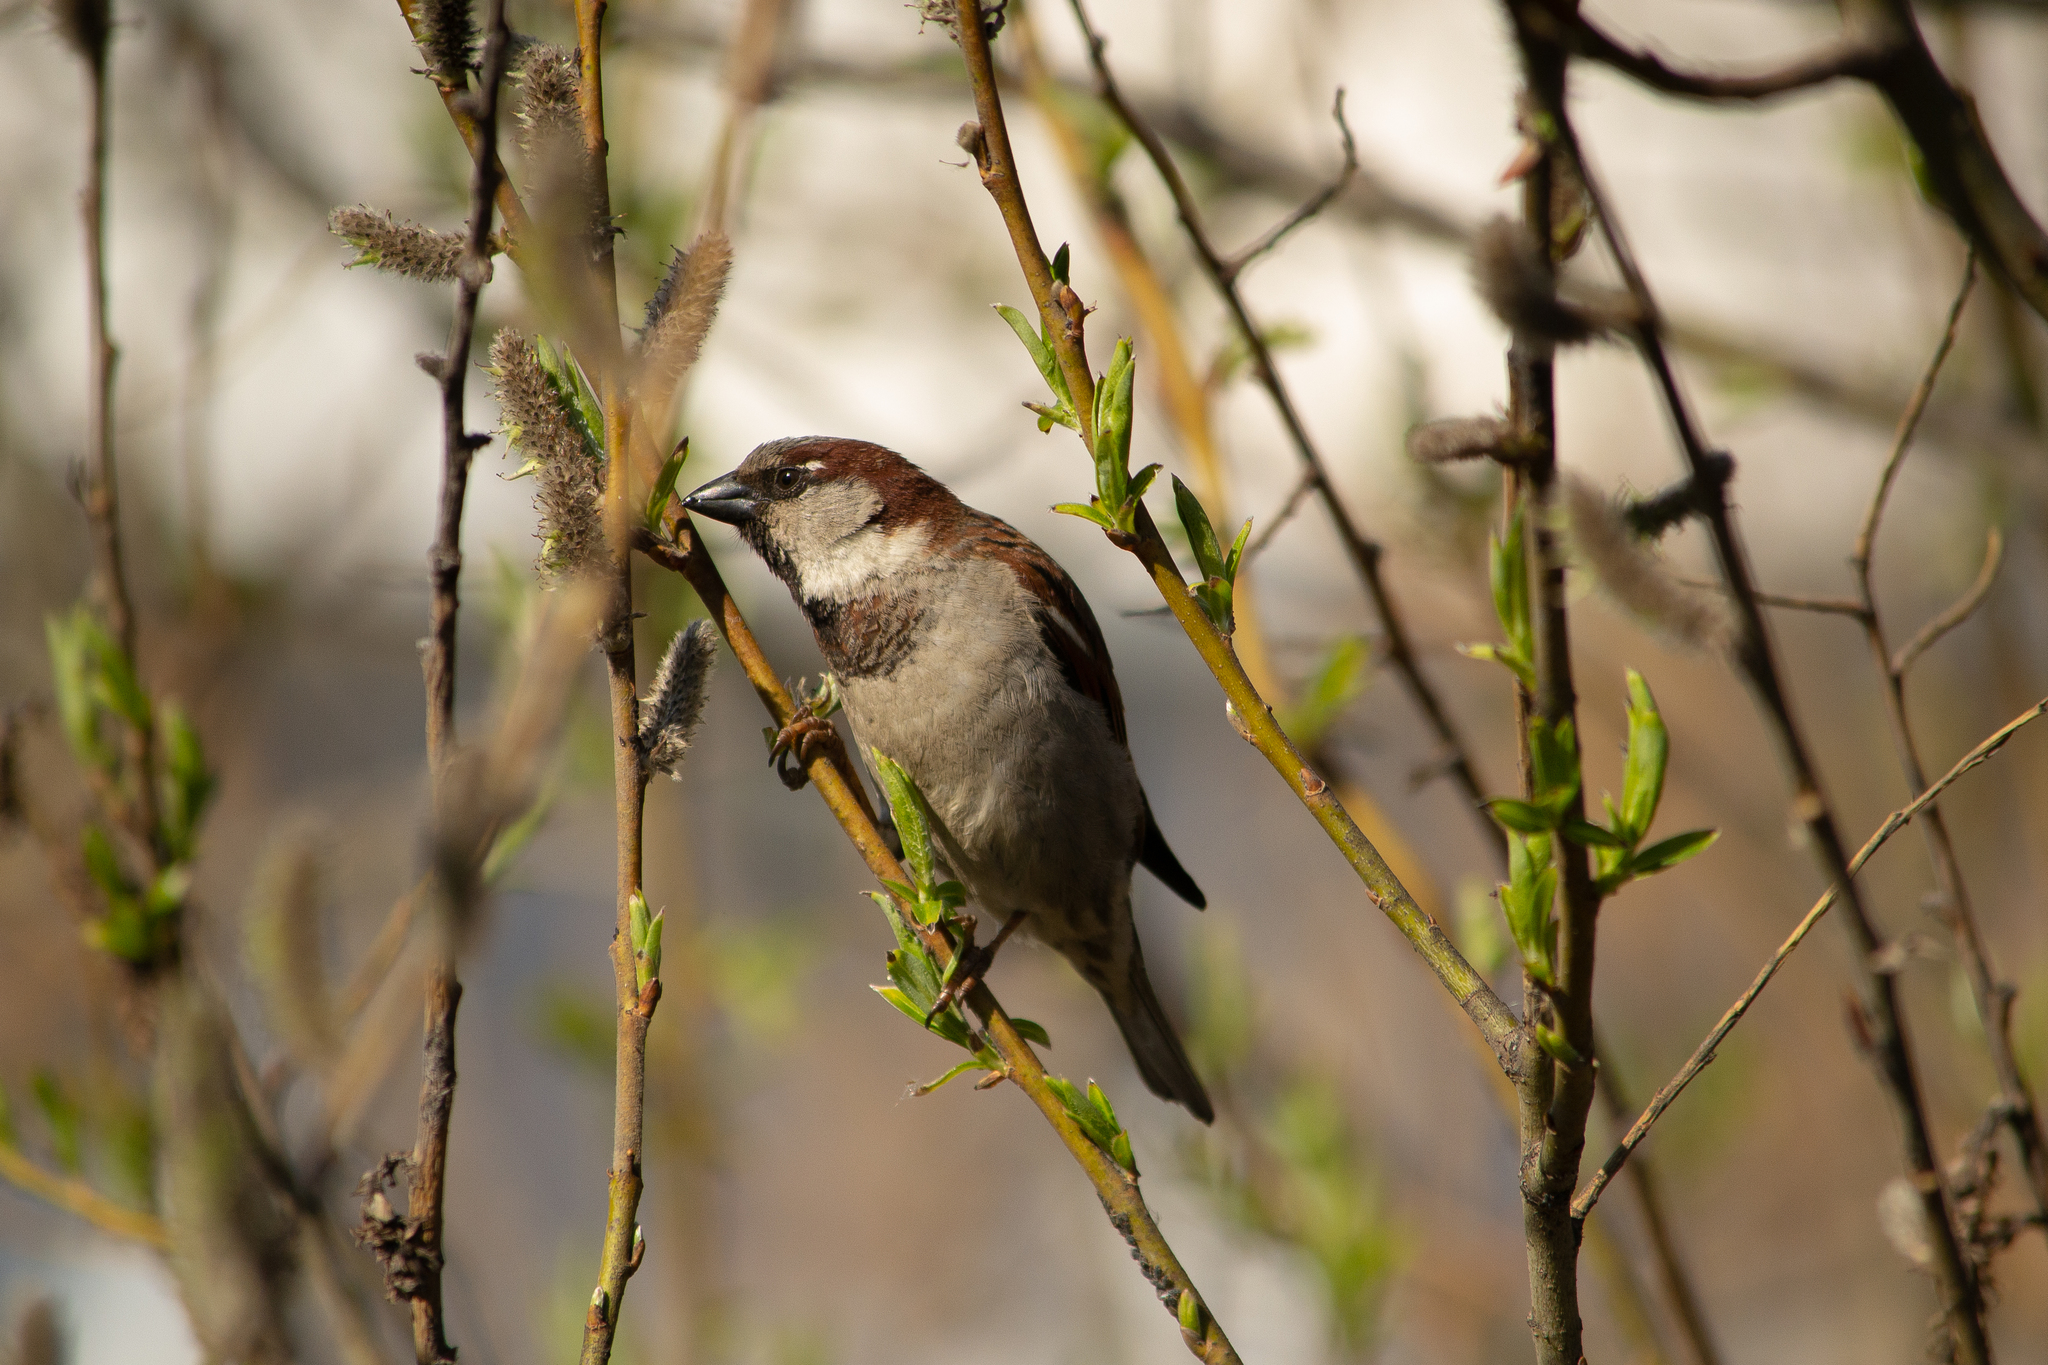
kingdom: Animalia
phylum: Chordata
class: Aves
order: Passeriformes
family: Passeridae
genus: Passer
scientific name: Passer domesticus
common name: House sparrow
